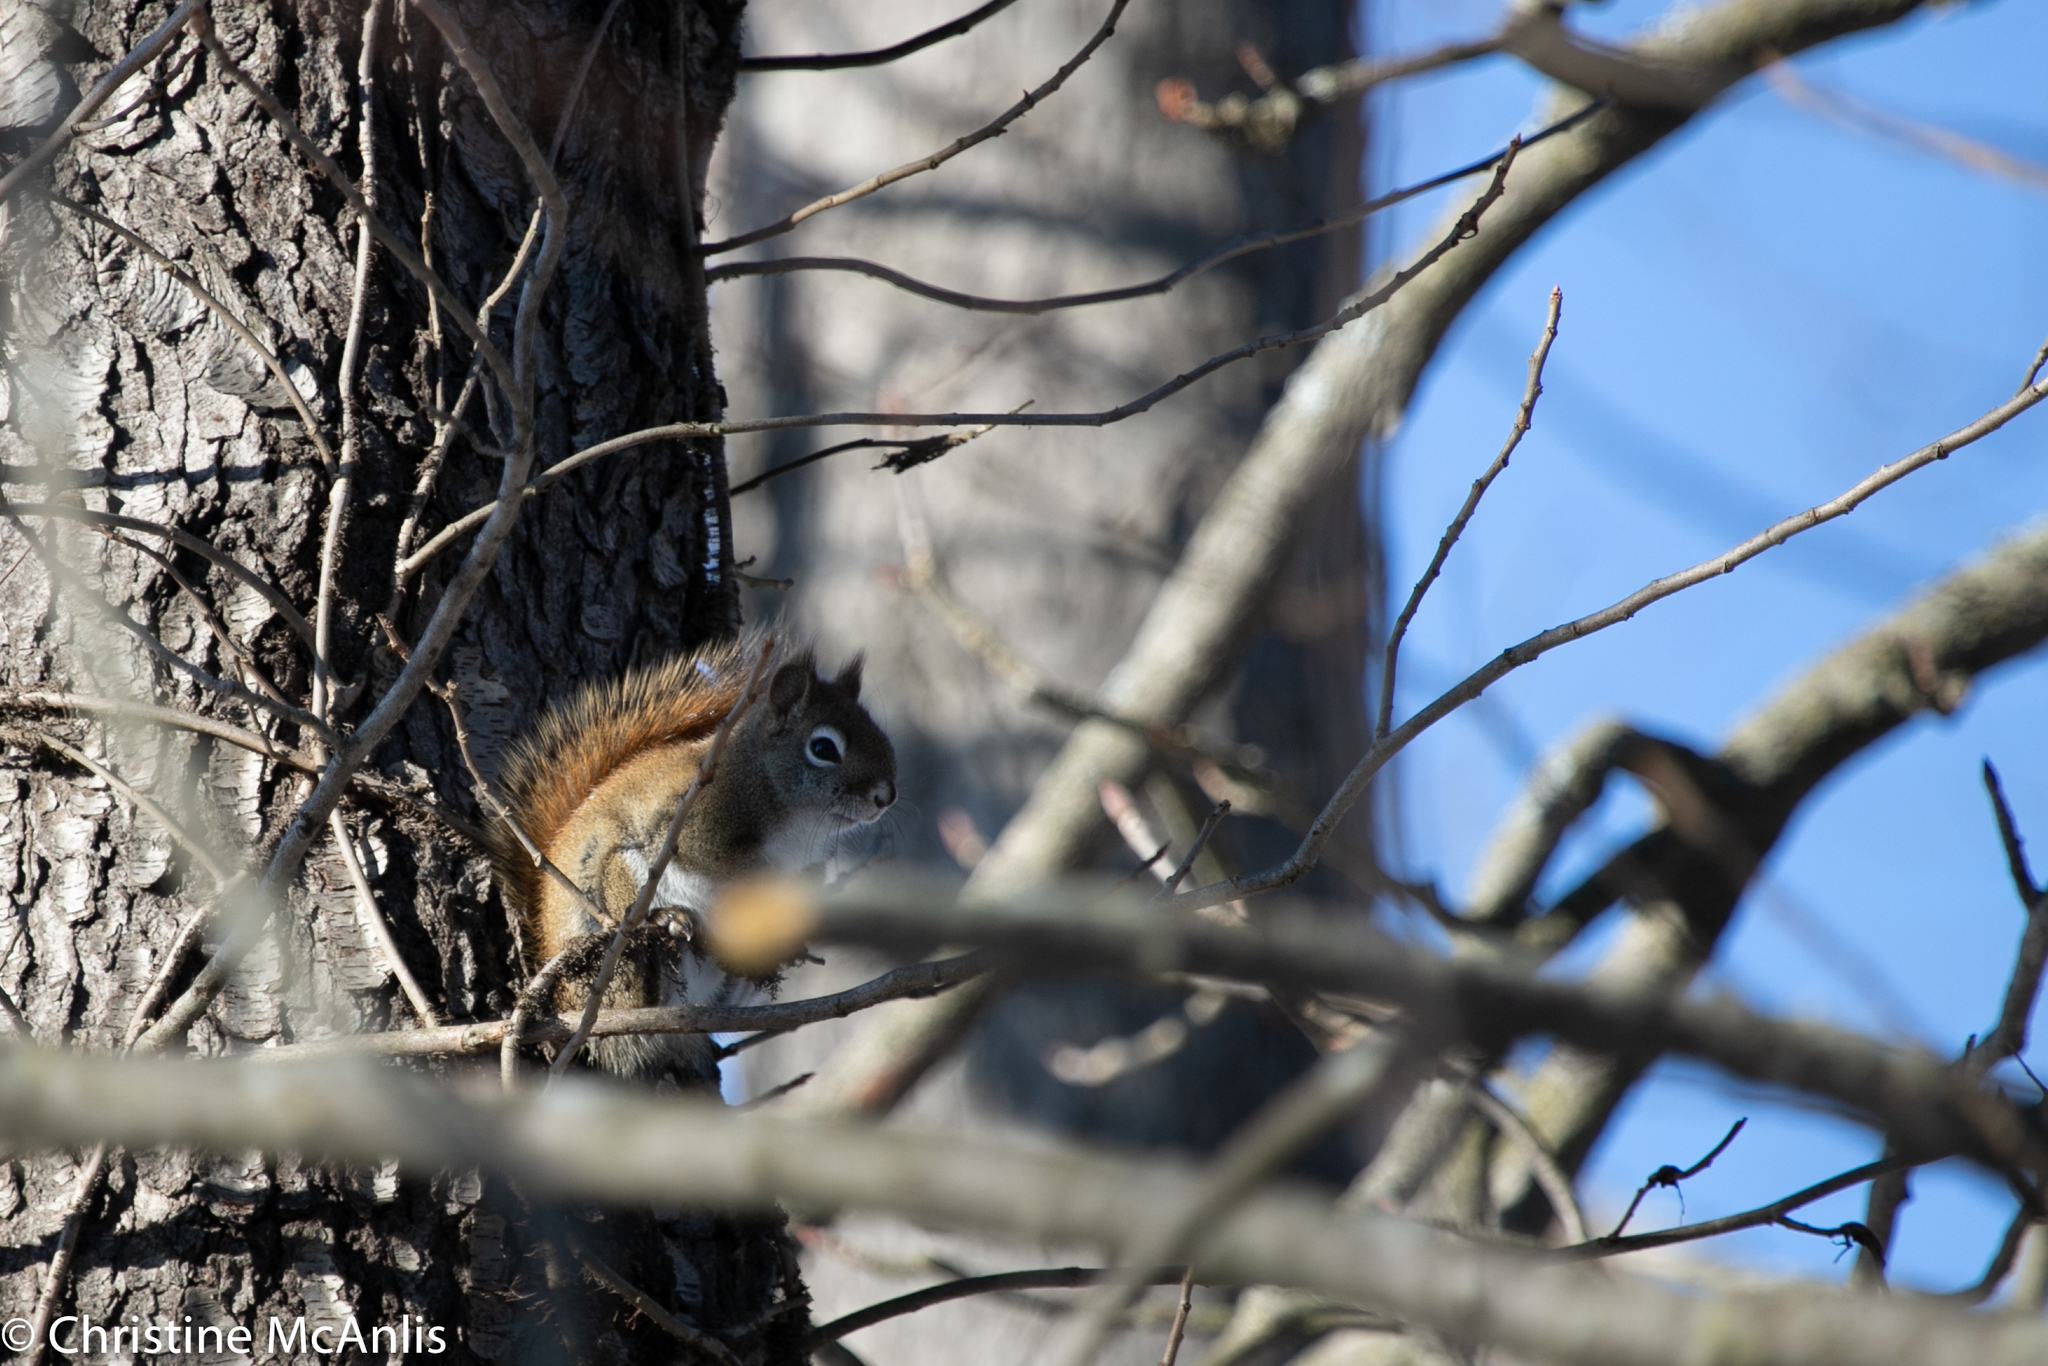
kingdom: Animalia
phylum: Chordata
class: Mammalia
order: Rodentia
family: Sciuridae
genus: Tamiasciurus
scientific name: Tamiasciurus hudsonicus
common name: Red squirrel
